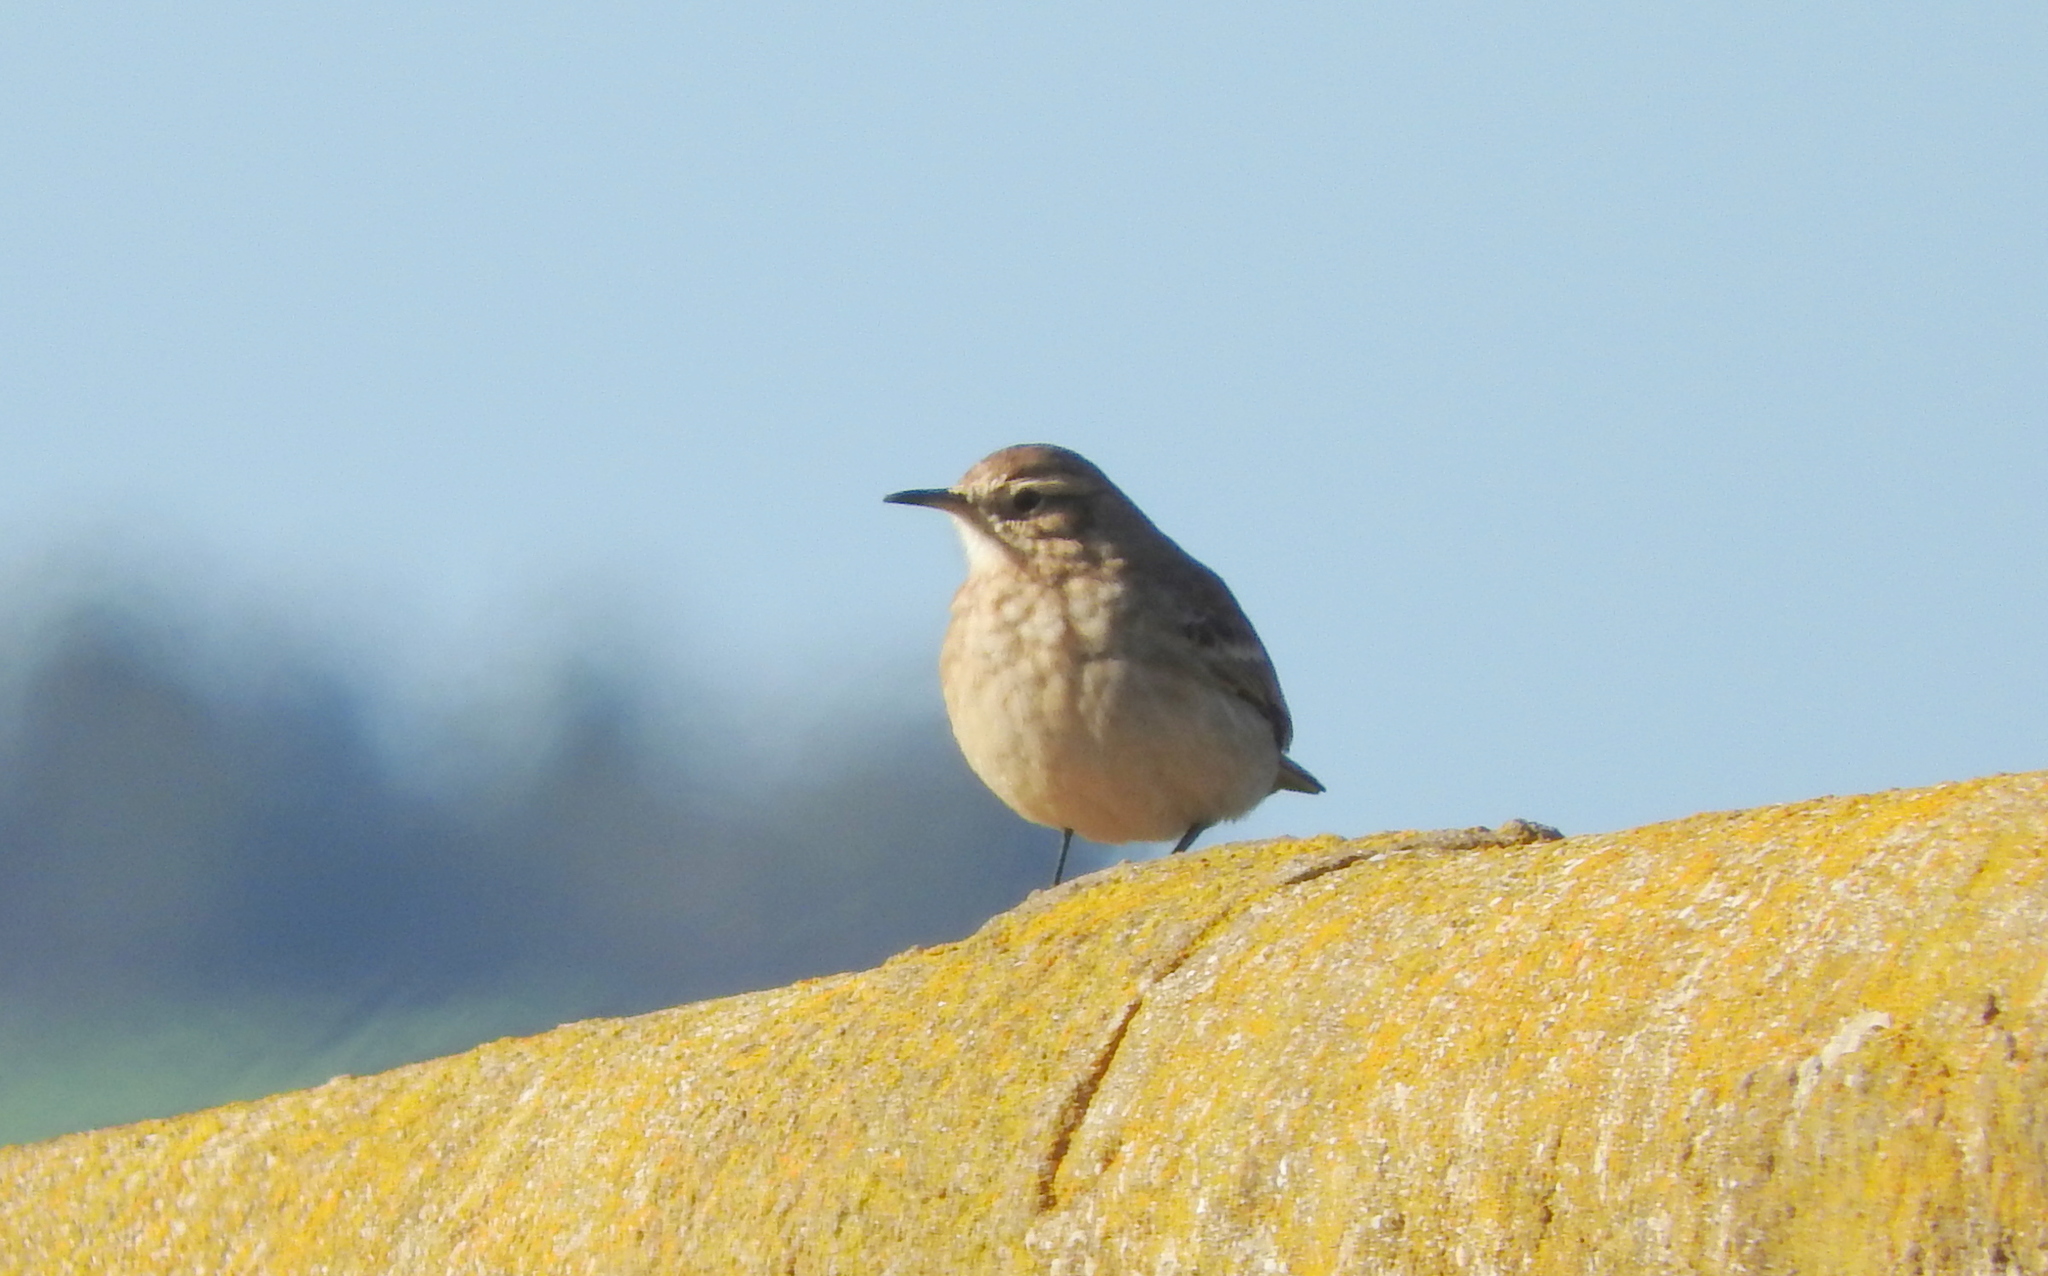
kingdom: Animalia
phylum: Chordata
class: Aves
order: Passeriformes
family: Furnariidae
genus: Geositta
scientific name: Geositta cunicularia
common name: Common miner
